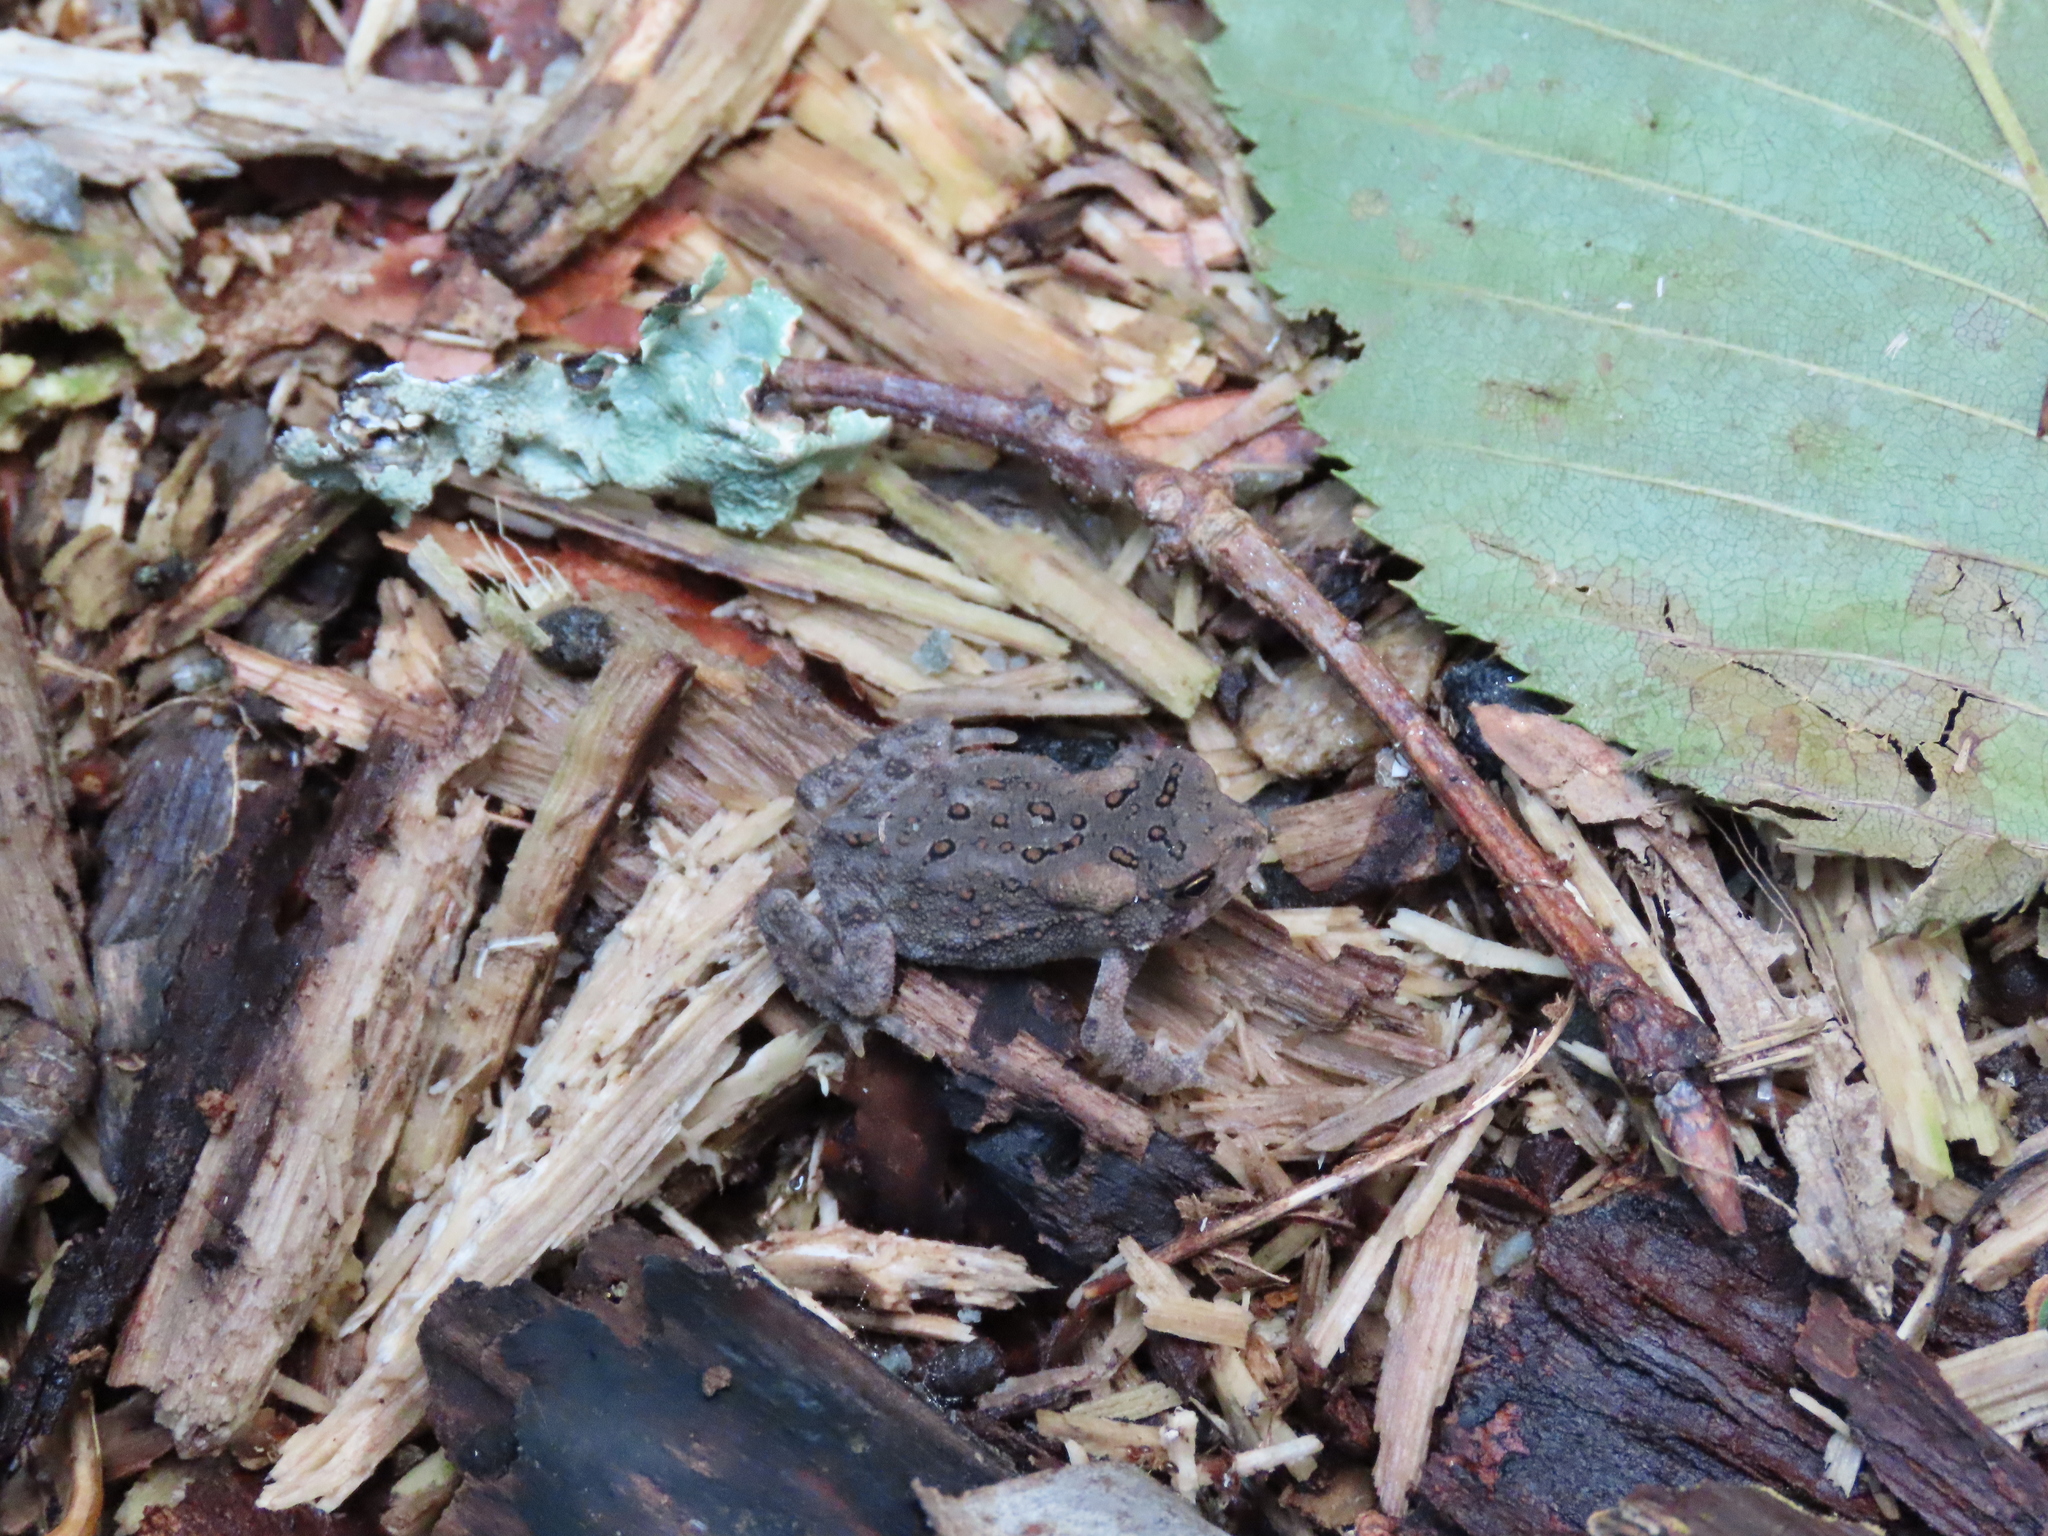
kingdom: Animalia
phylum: Chordata
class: Amphibia
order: Anura
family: Bufonidae
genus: Anaxyrus
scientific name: Anaxyrus americanus
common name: American toad
